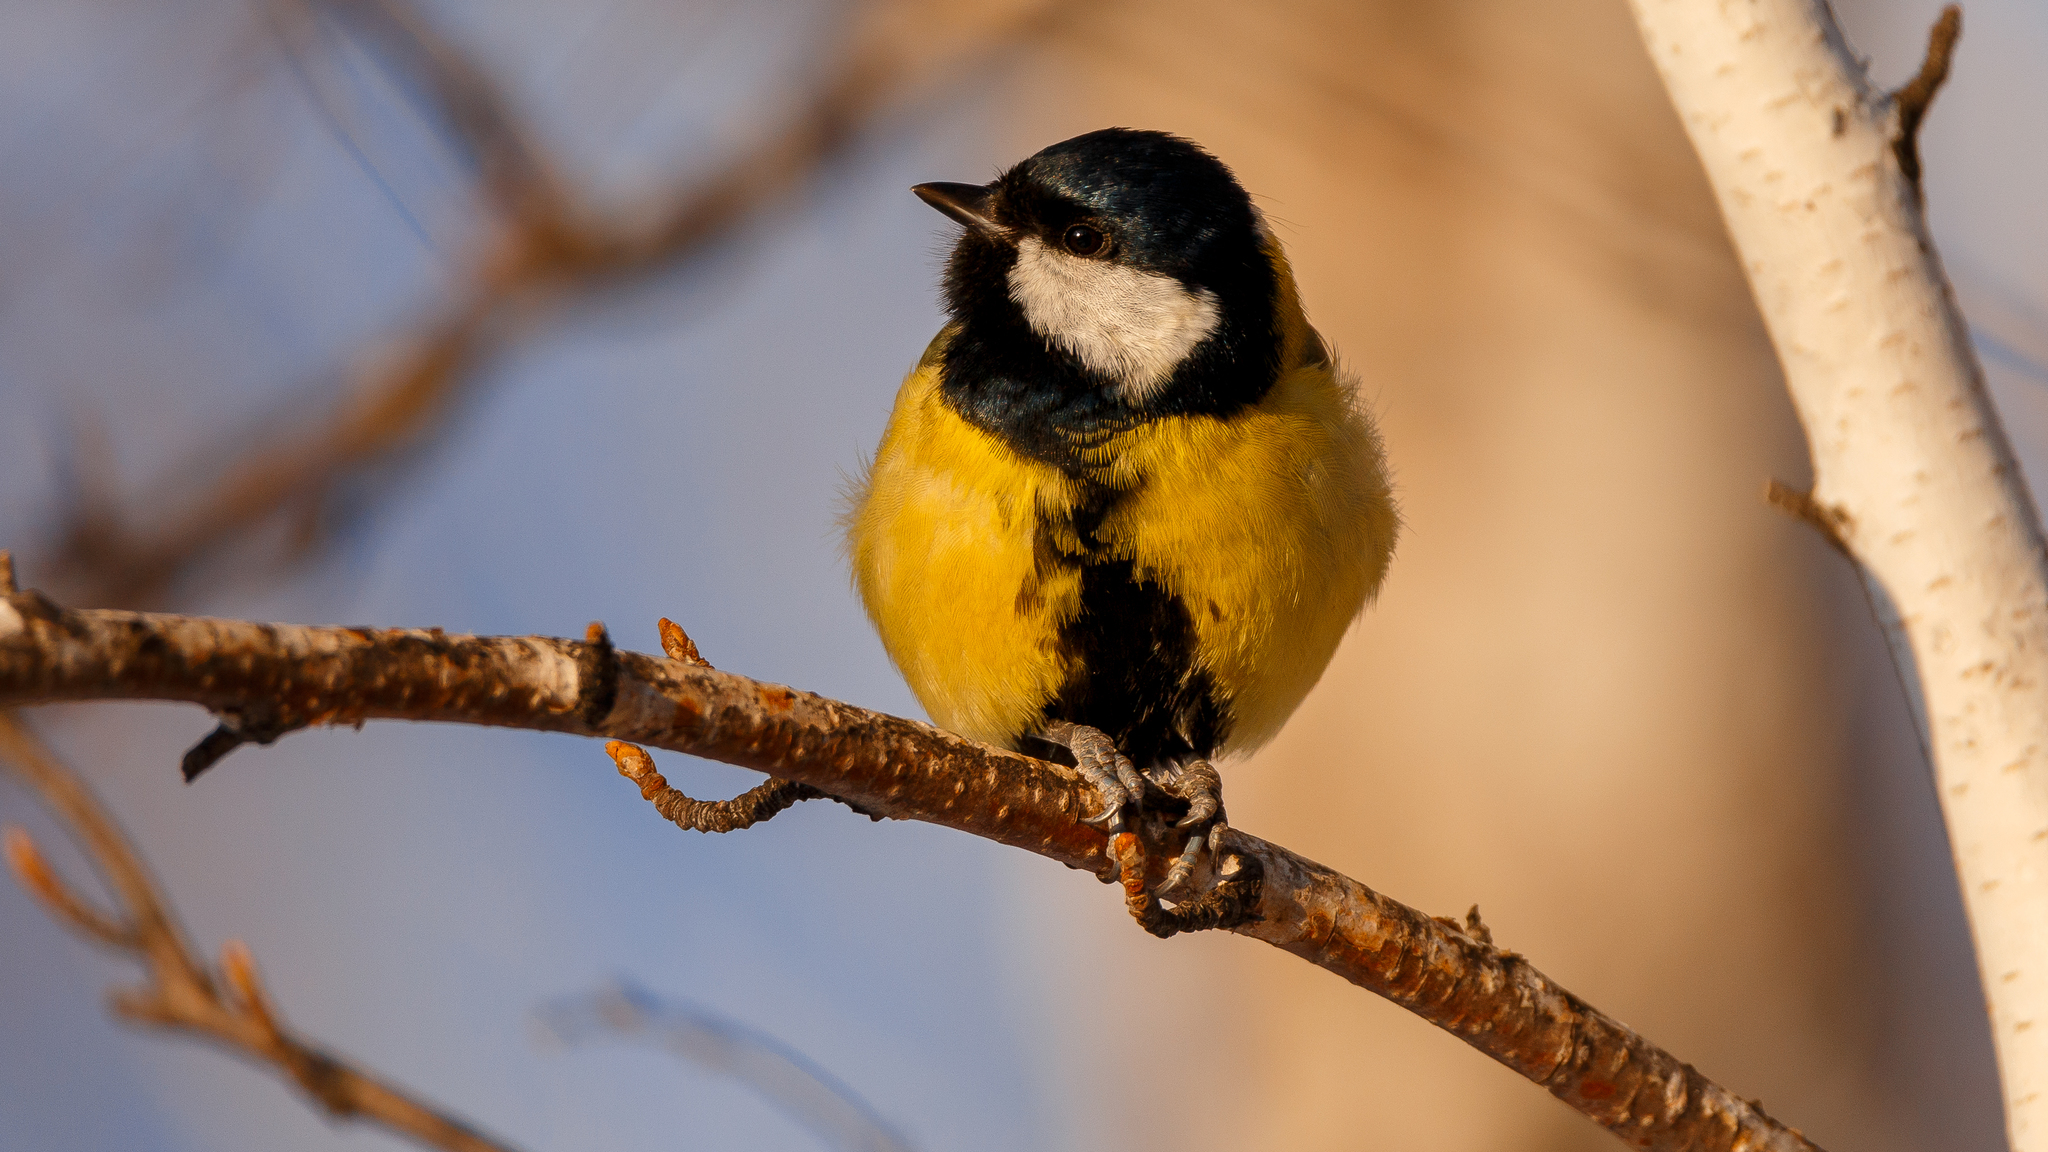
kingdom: Animalia
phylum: Chordata
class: Aves
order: Passeriformes
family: Paridae
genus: Parus
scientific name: Parus major
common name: Great tit
